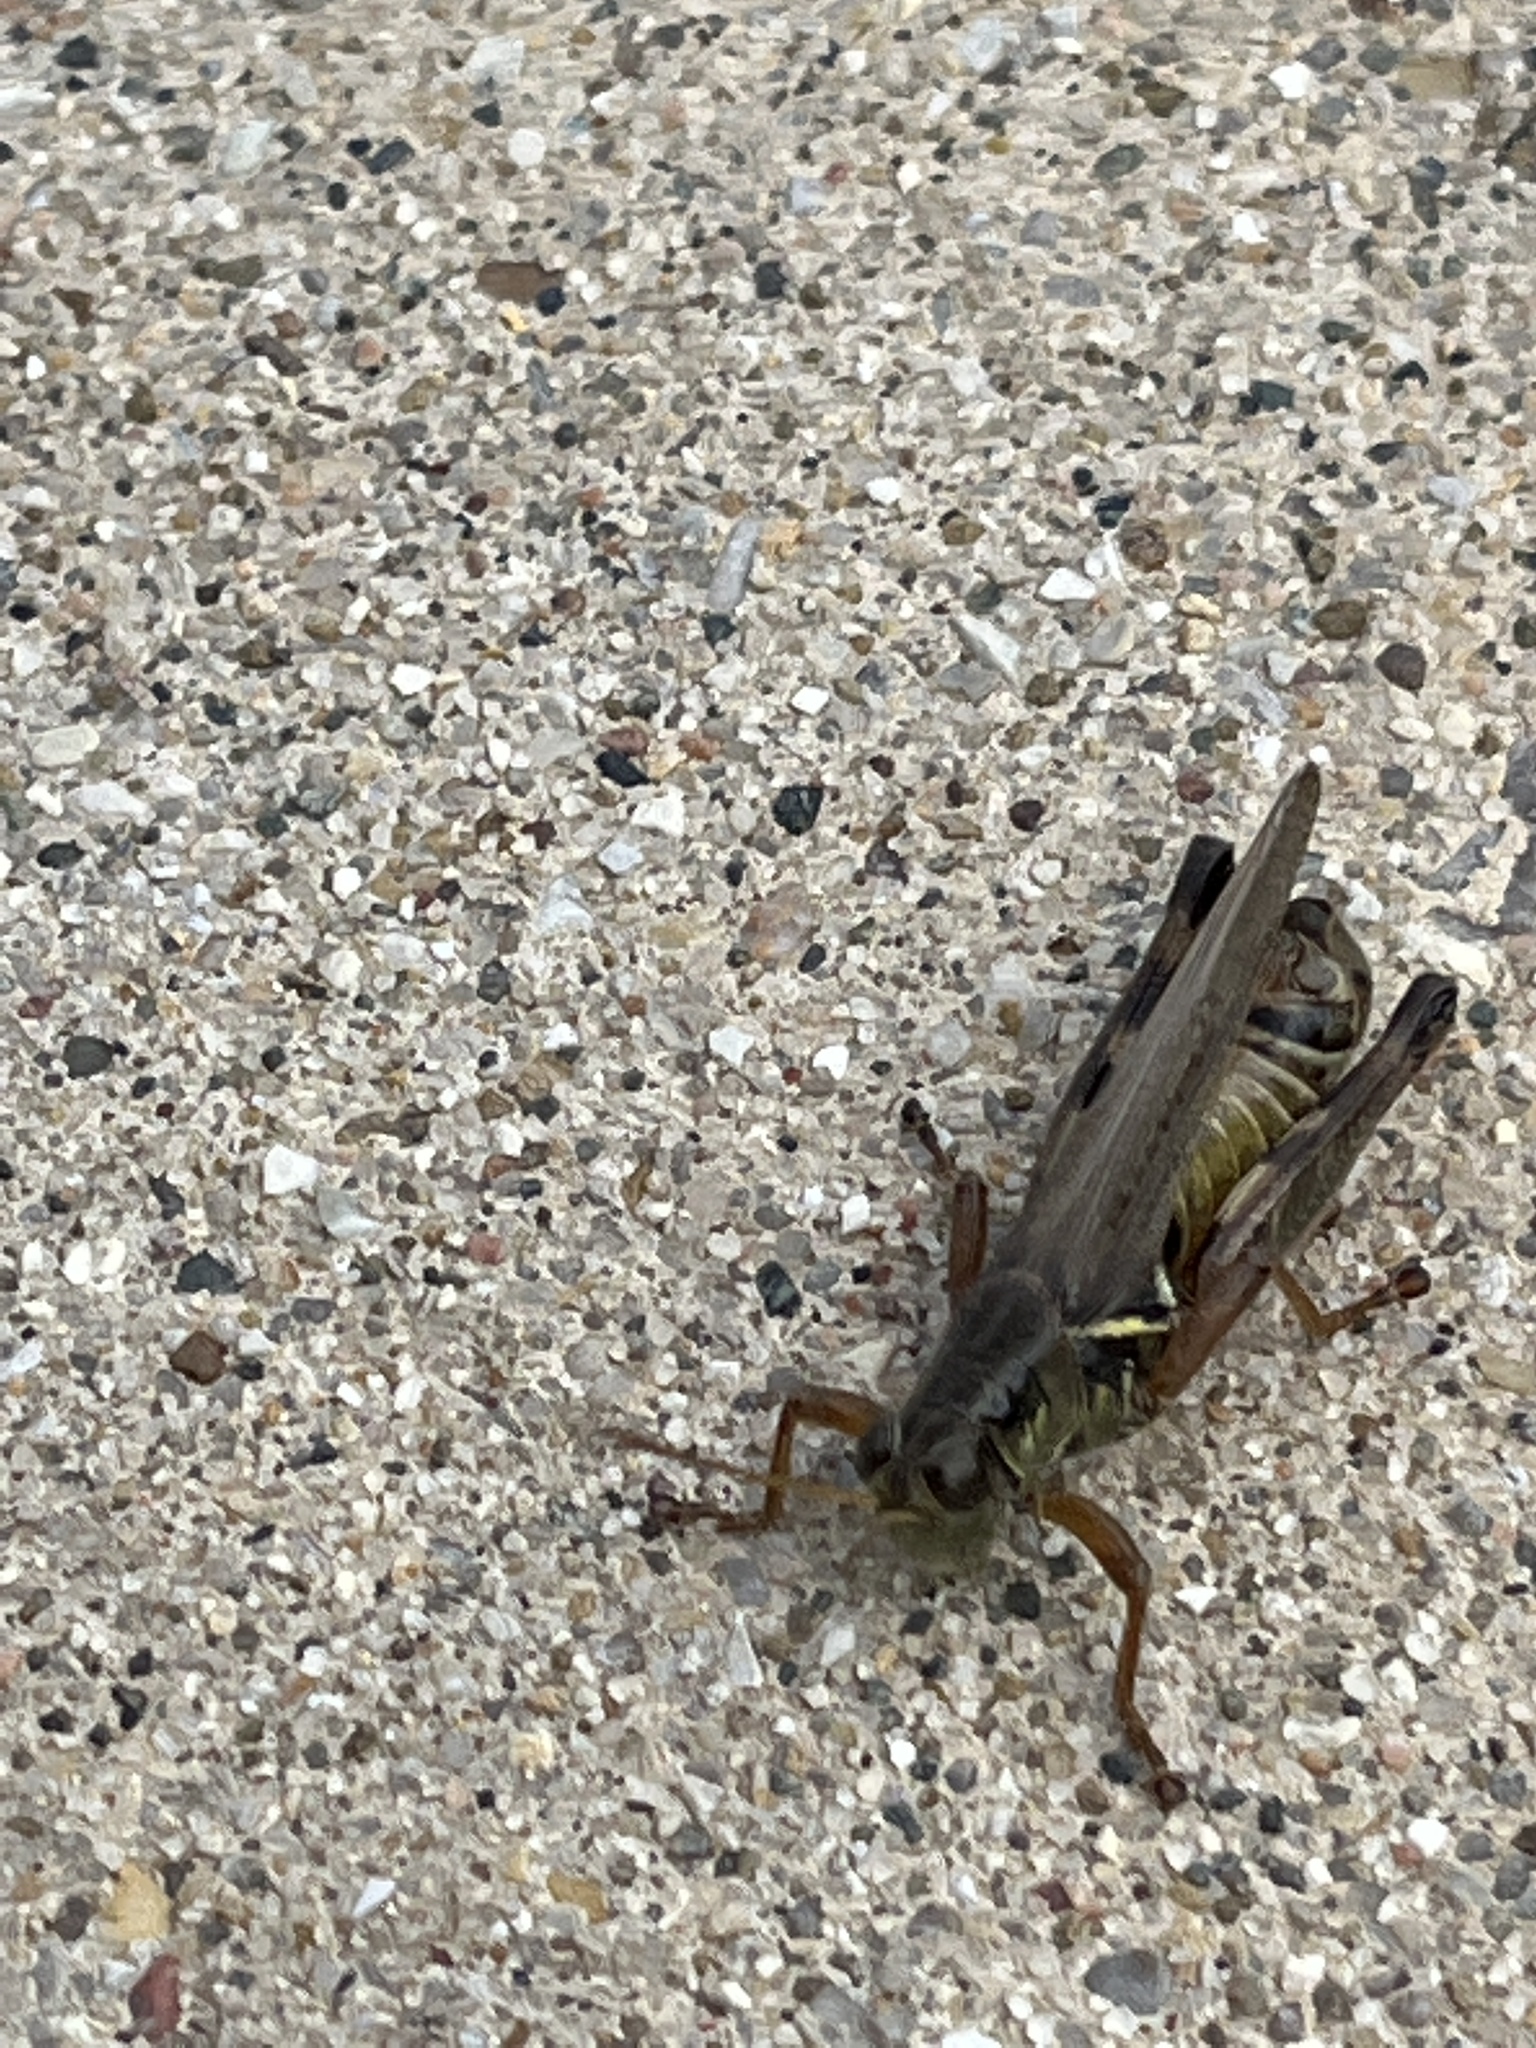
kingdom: Animalia
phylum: Arthropoda
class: Insecta
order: Orthoptera
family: Acrididae
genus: Melanoplus
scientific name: Melanoplus femurrubrum
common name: Red-legged grasshopper
